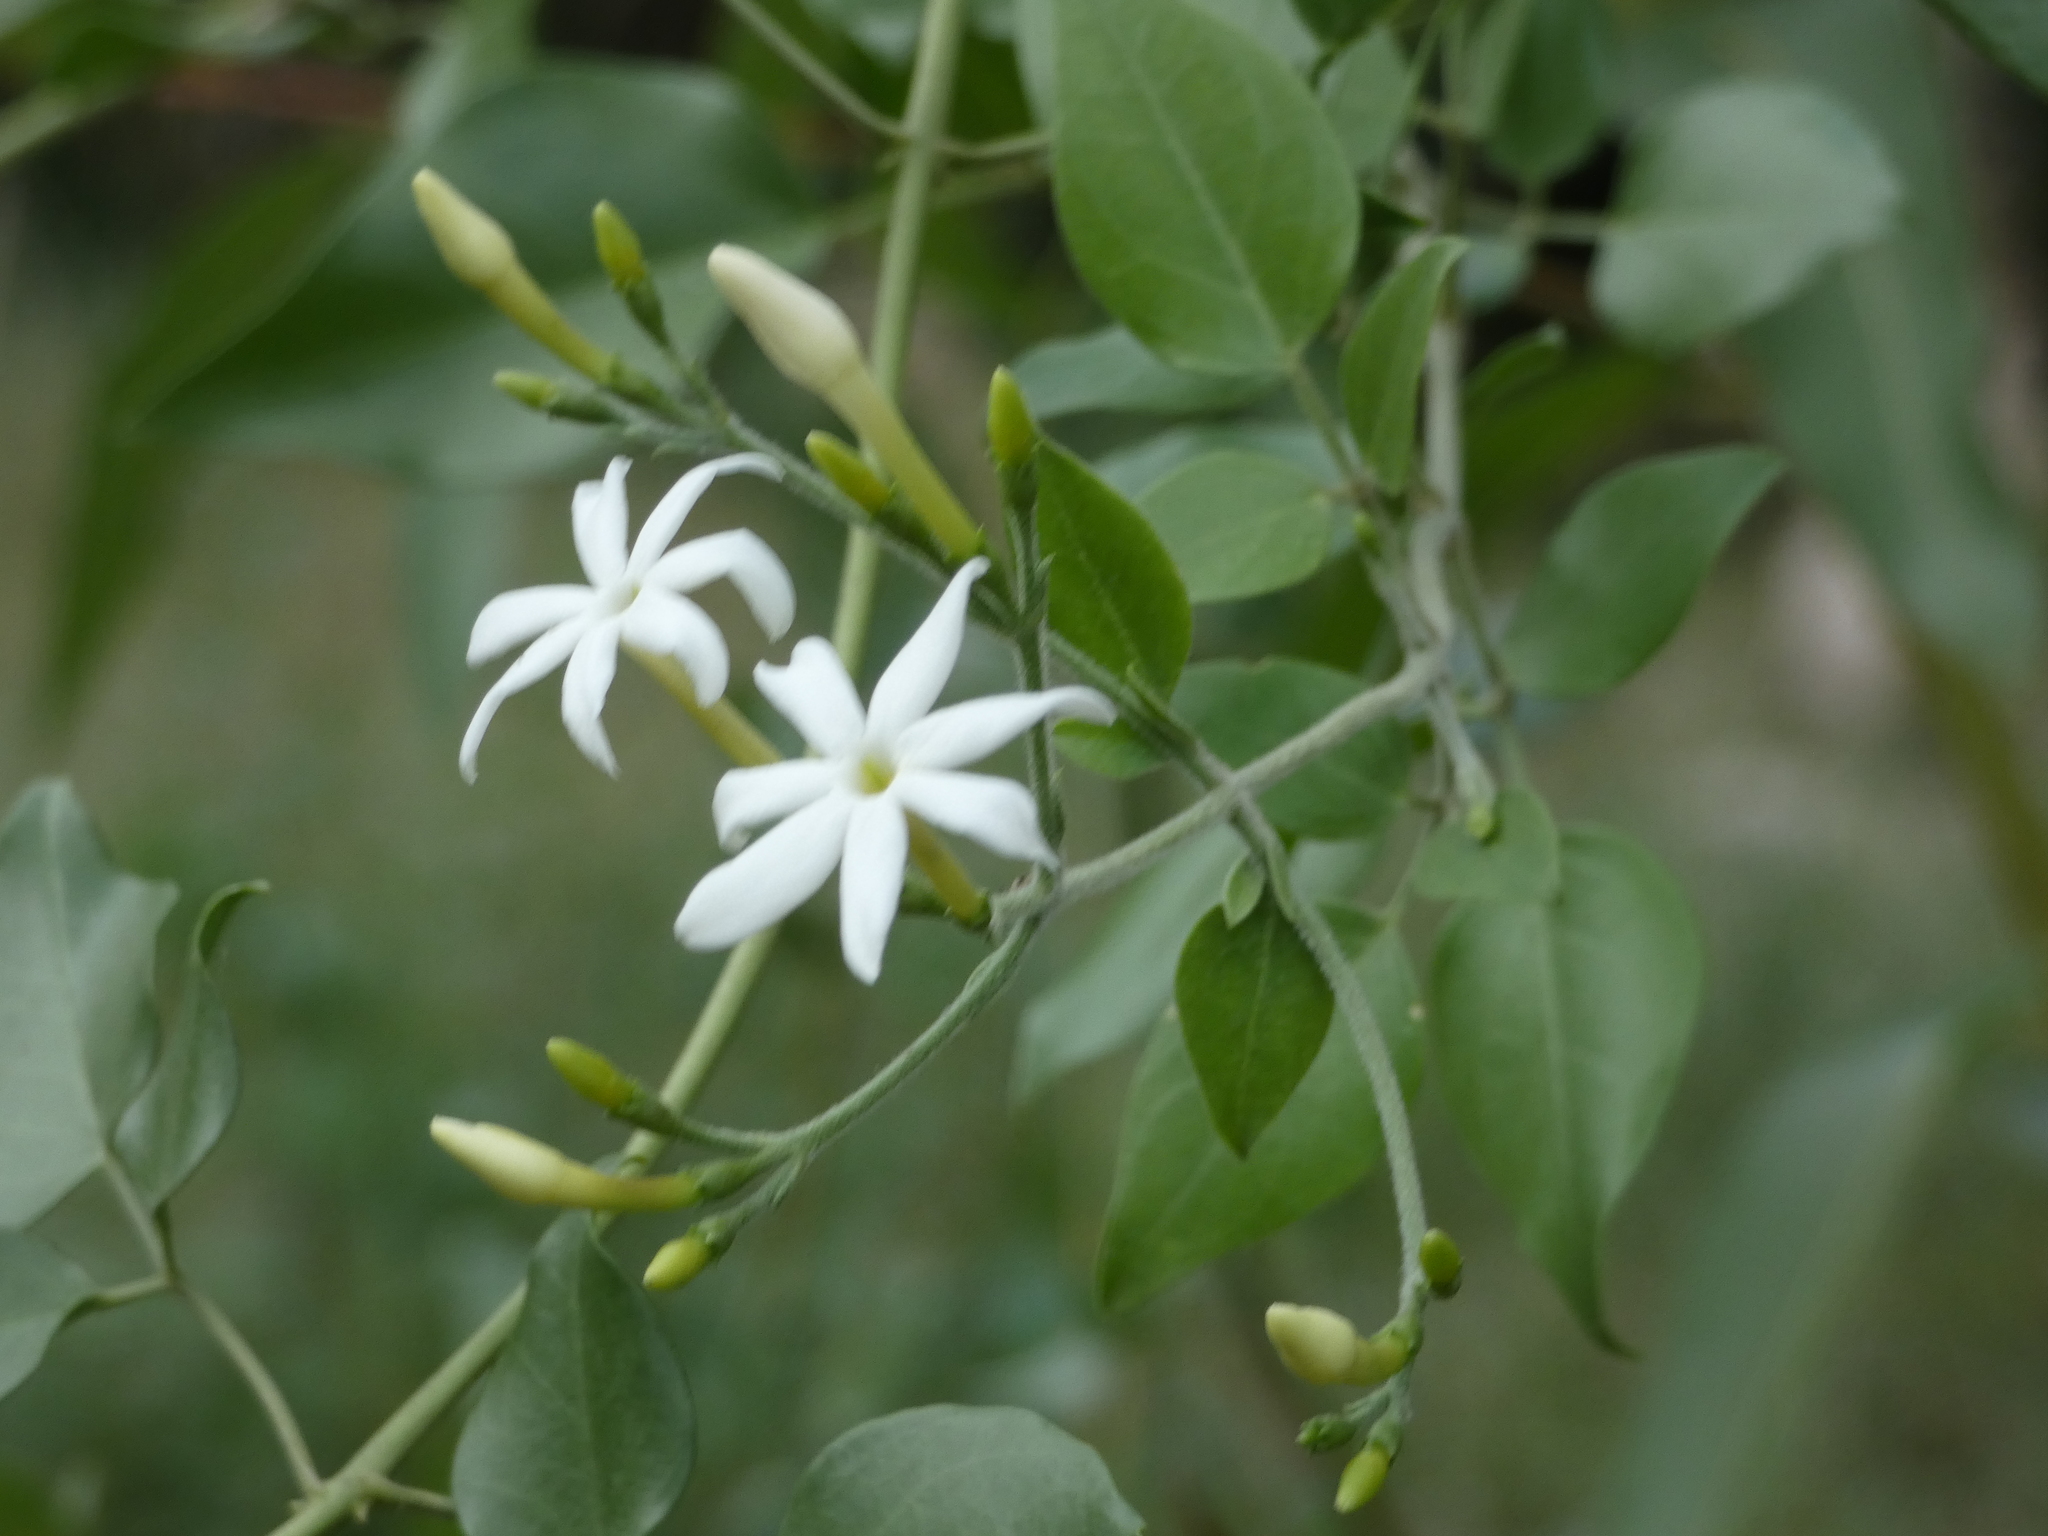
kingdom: Plantae
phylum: Tracheophyta
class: Magnoliopsida
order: Lamiales
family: Oleaceae
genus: Jasminum
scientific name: Jasminum fluminense
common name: Brazilian jasmine
